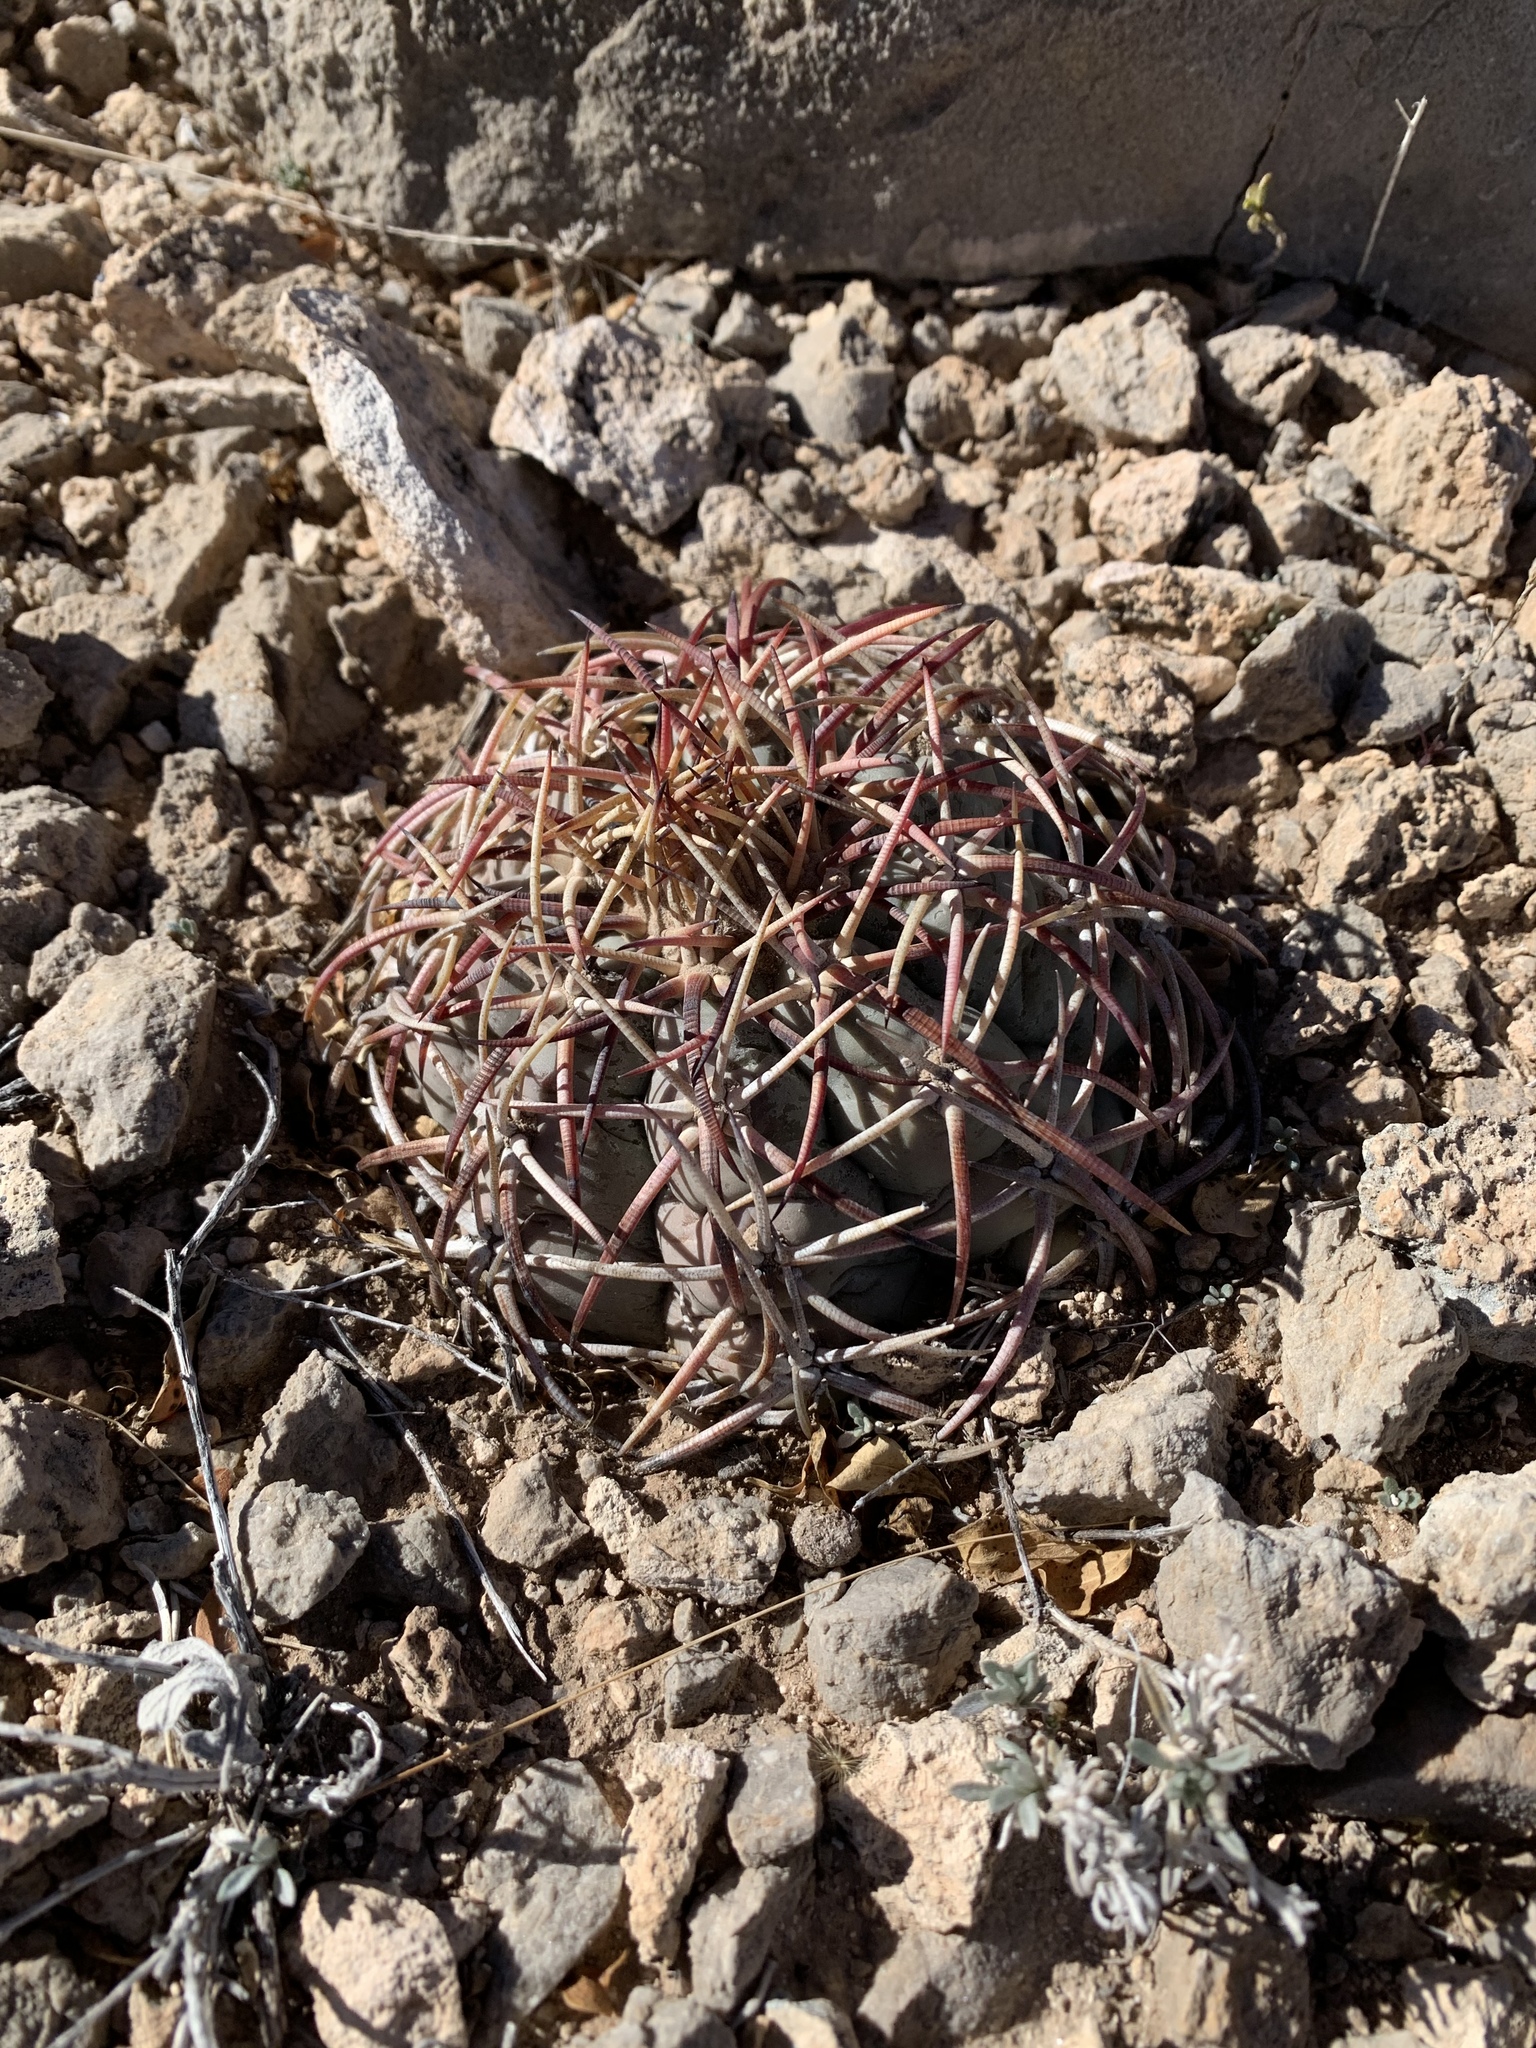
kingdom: Plantae
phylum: Tracheophyta
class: Magnoliopsida
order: Caryophyllales
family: Cactaceae
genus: Echinocactus
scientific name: Echinocactus horizonthalonius
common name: Devilshead
